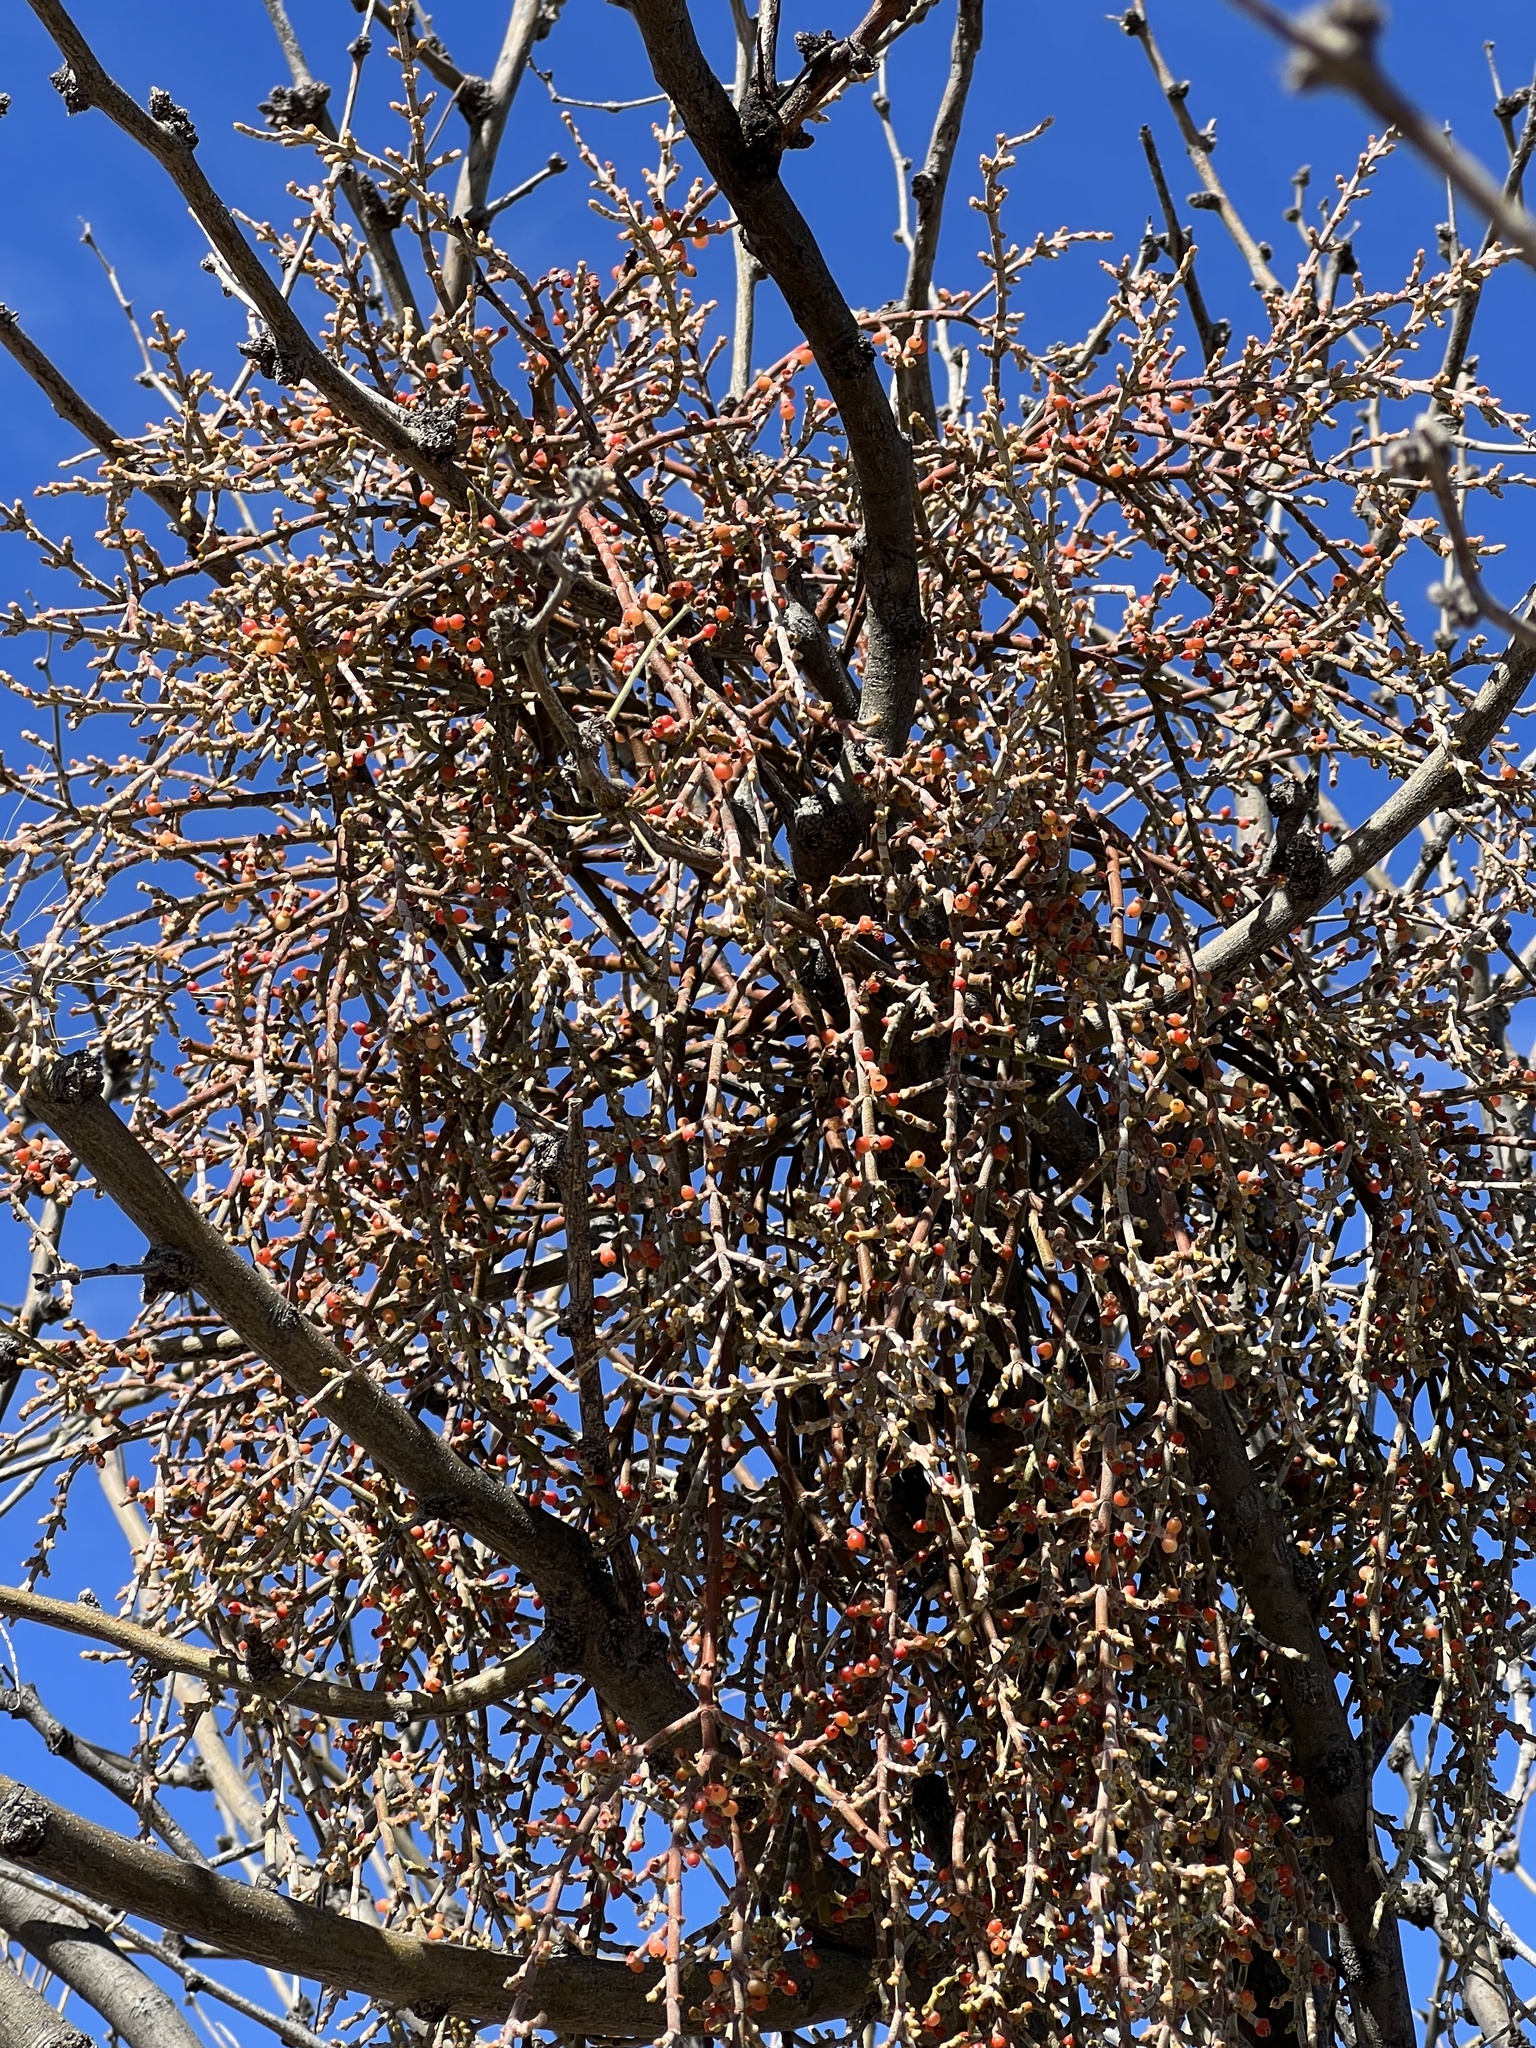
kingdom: Plantae
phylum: Tracheophyta
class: Magnoliopsida
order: Santalales
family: Viscaceae
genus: Phoradendron
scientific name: Phoradendron californicum
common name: Acacia mistletoe
